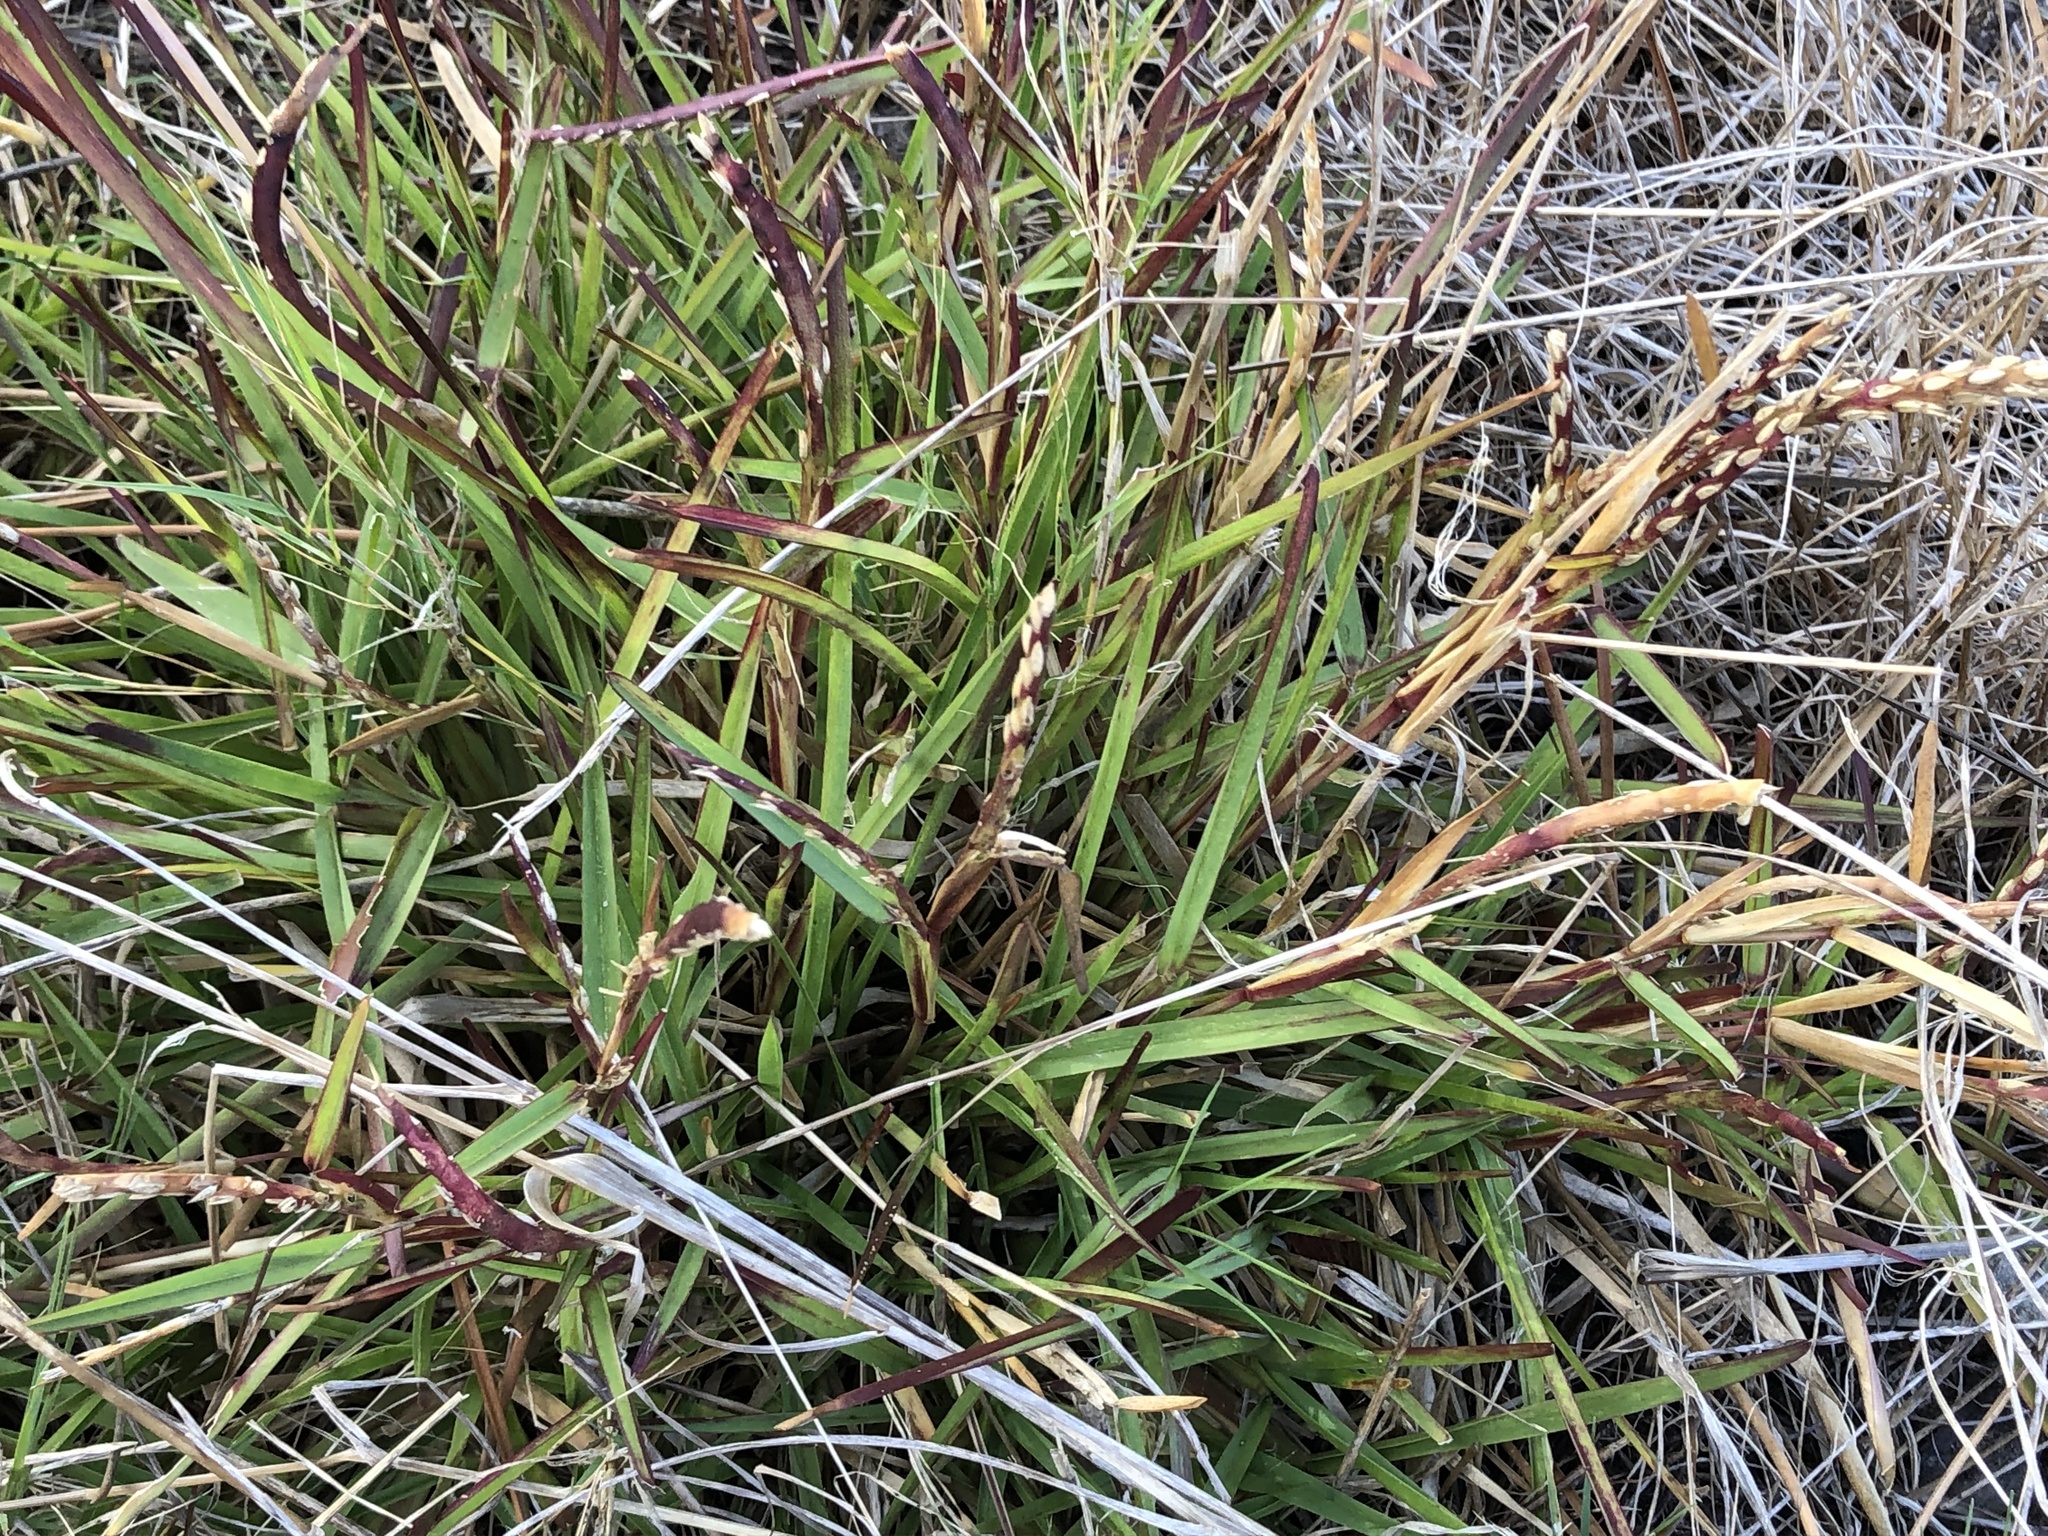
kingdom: Plantae
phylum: Tracheophyta
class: Liliopsida
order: Poales
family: Poaceae
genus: Stenotaphrum
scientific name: Stenotaphrum secundatum
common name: St. augustine grass
